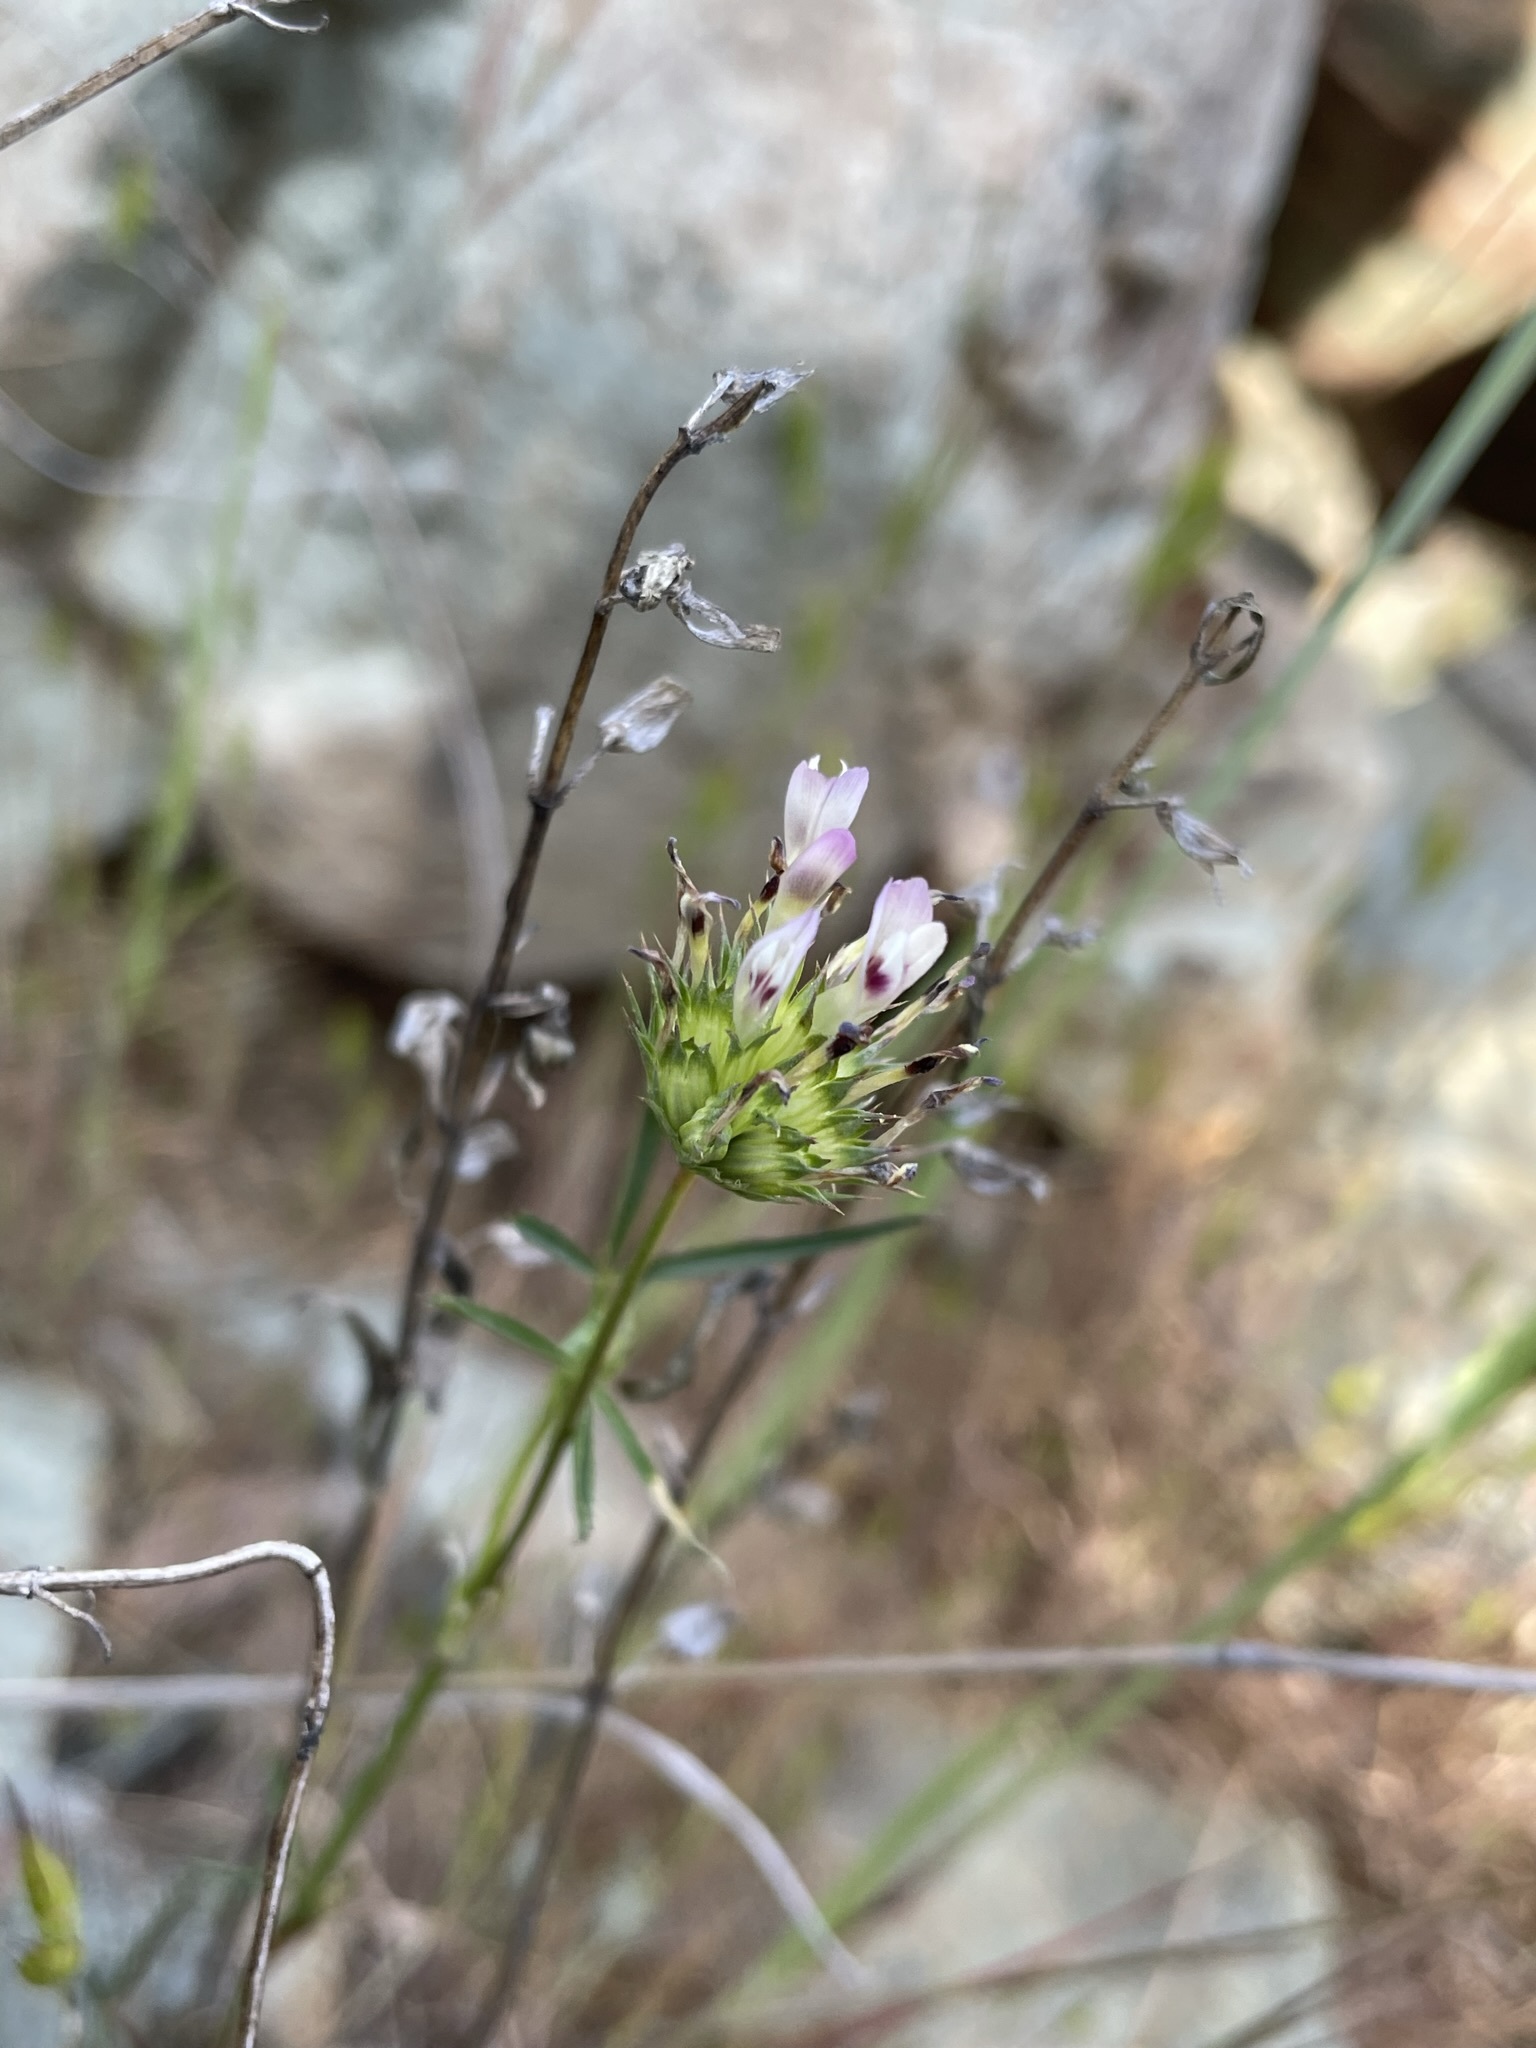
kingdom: Plantae
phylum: Tracheophyta
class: Magnoliopsida
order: Fabales
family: Fabaceae
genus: Trifolium
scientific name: Trifolium willdenovii
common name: Tomcat clover
